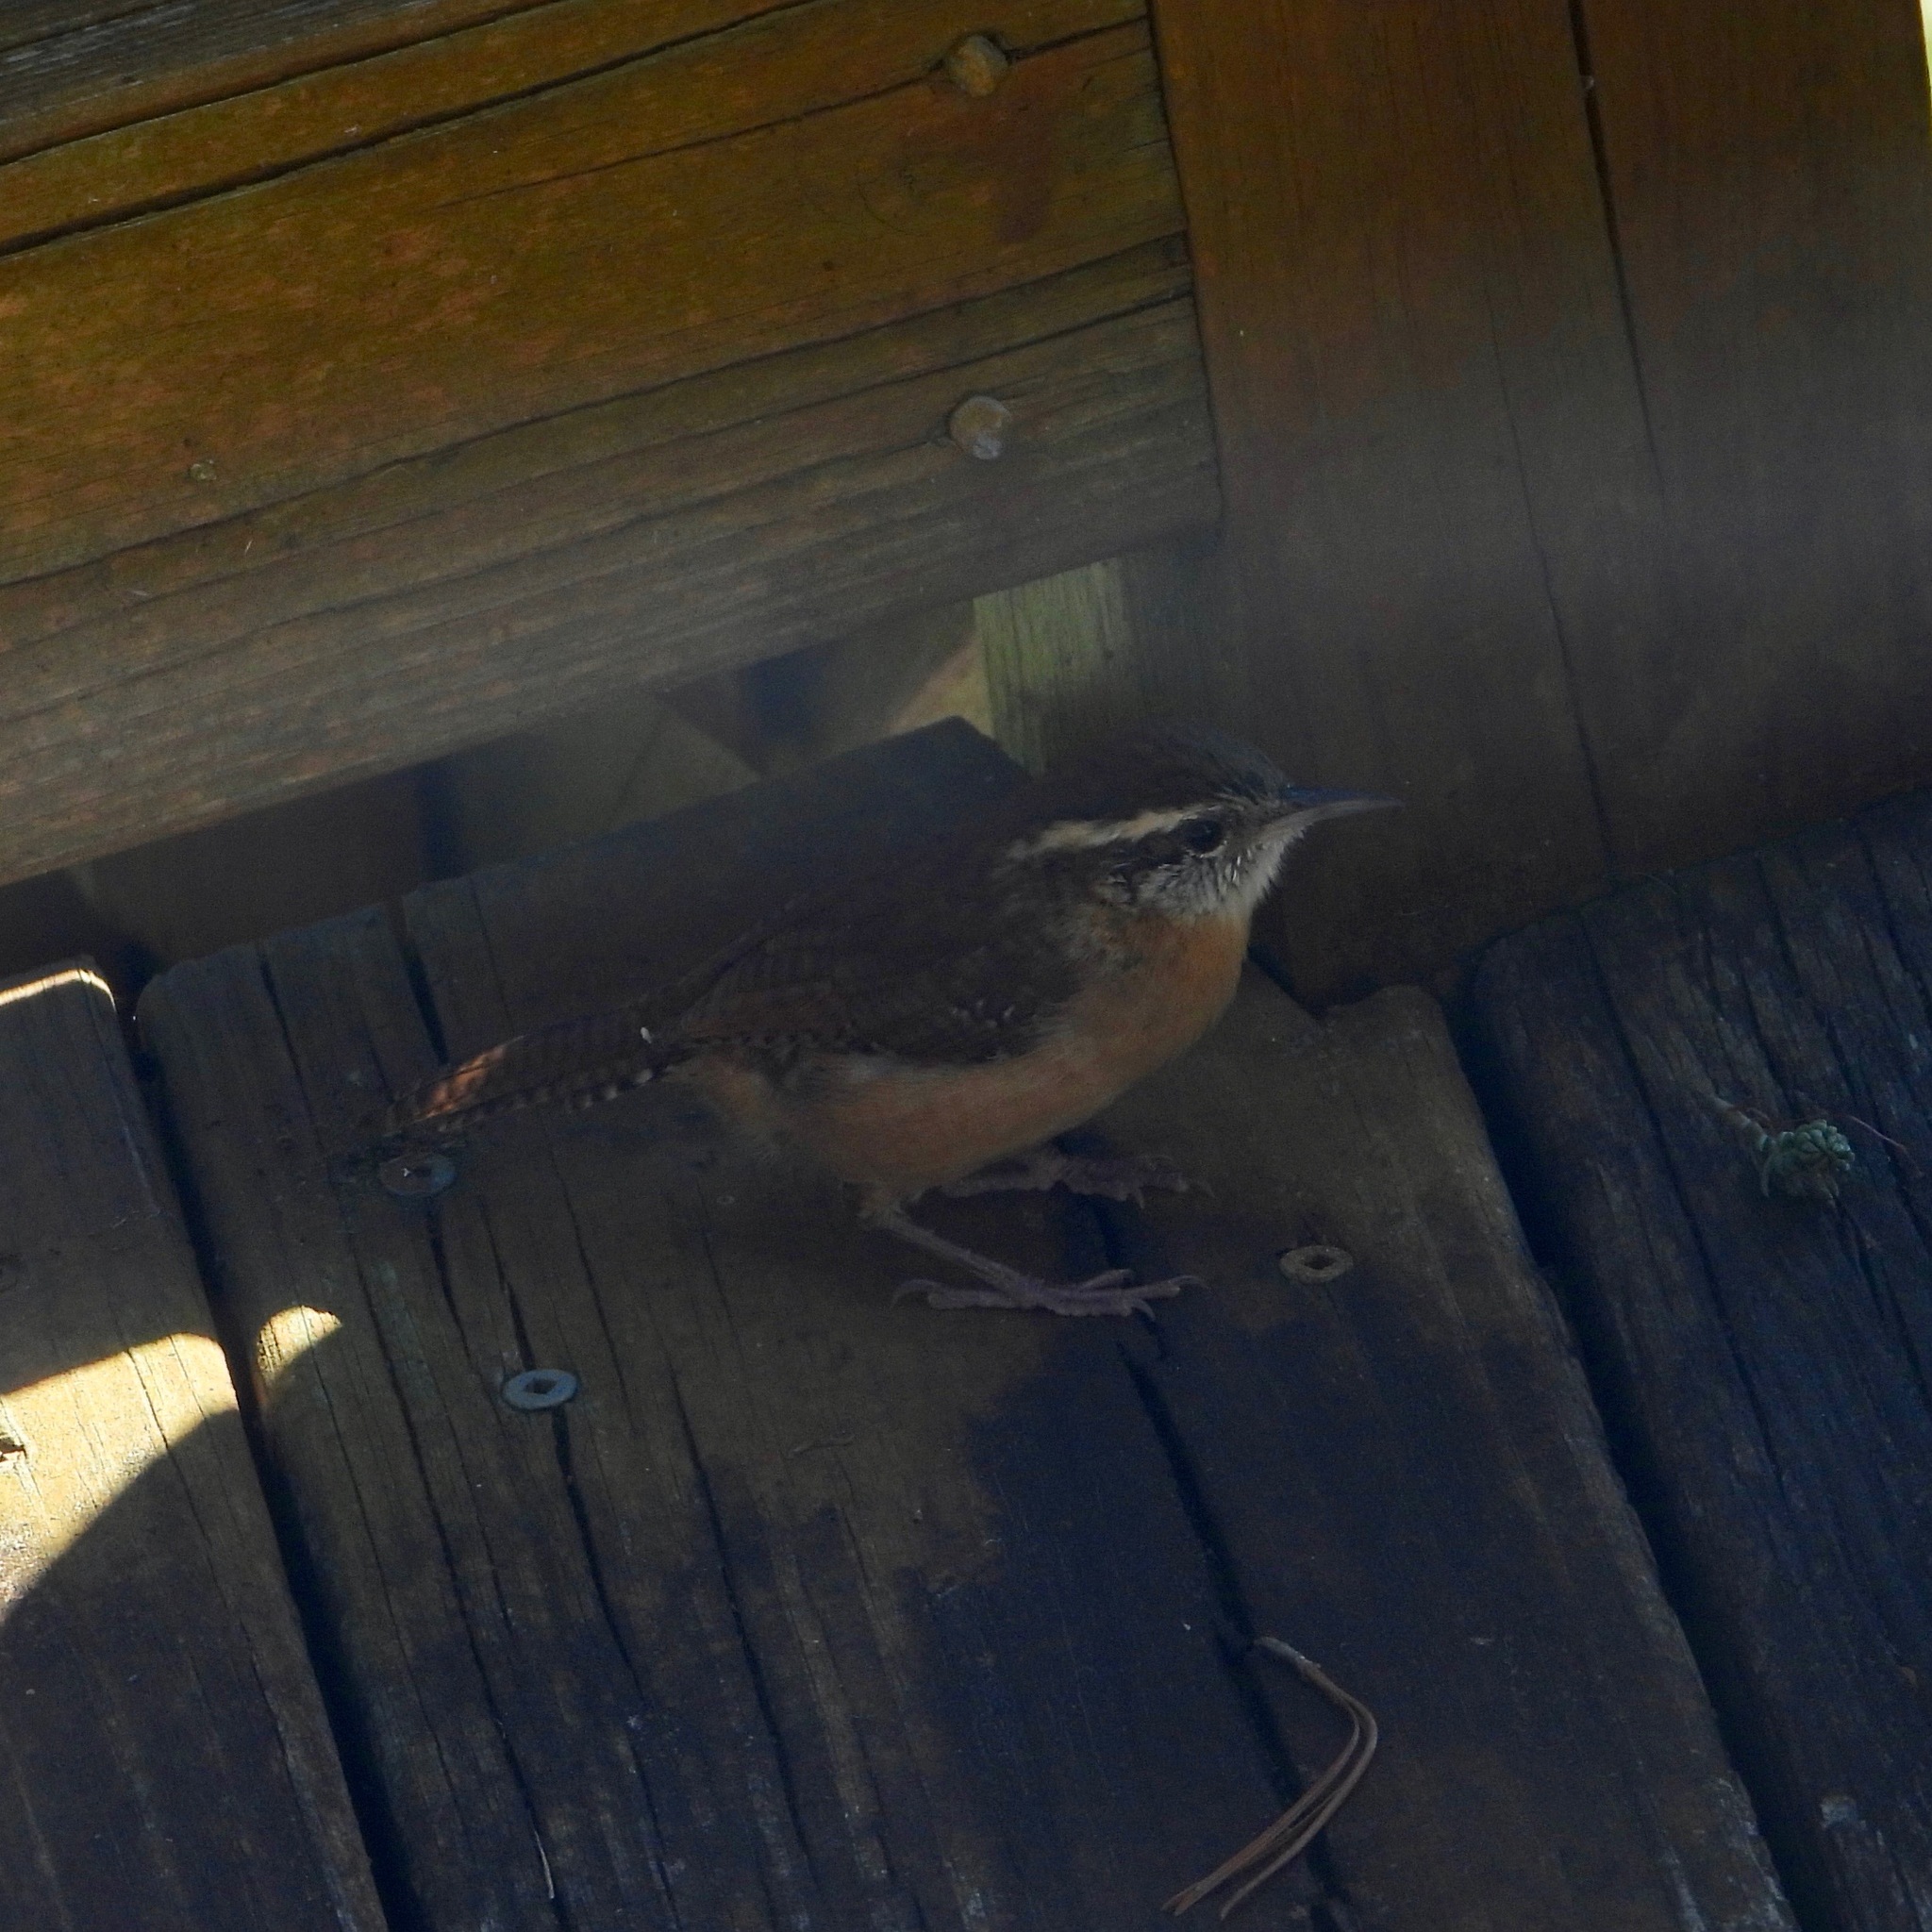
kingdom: Animalia
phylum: Chordata
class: Aves
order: Passeriformes
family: Troglodytidae
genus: Thryothorus
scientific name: Thryothorus ludovicianus
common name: Carolina wren
